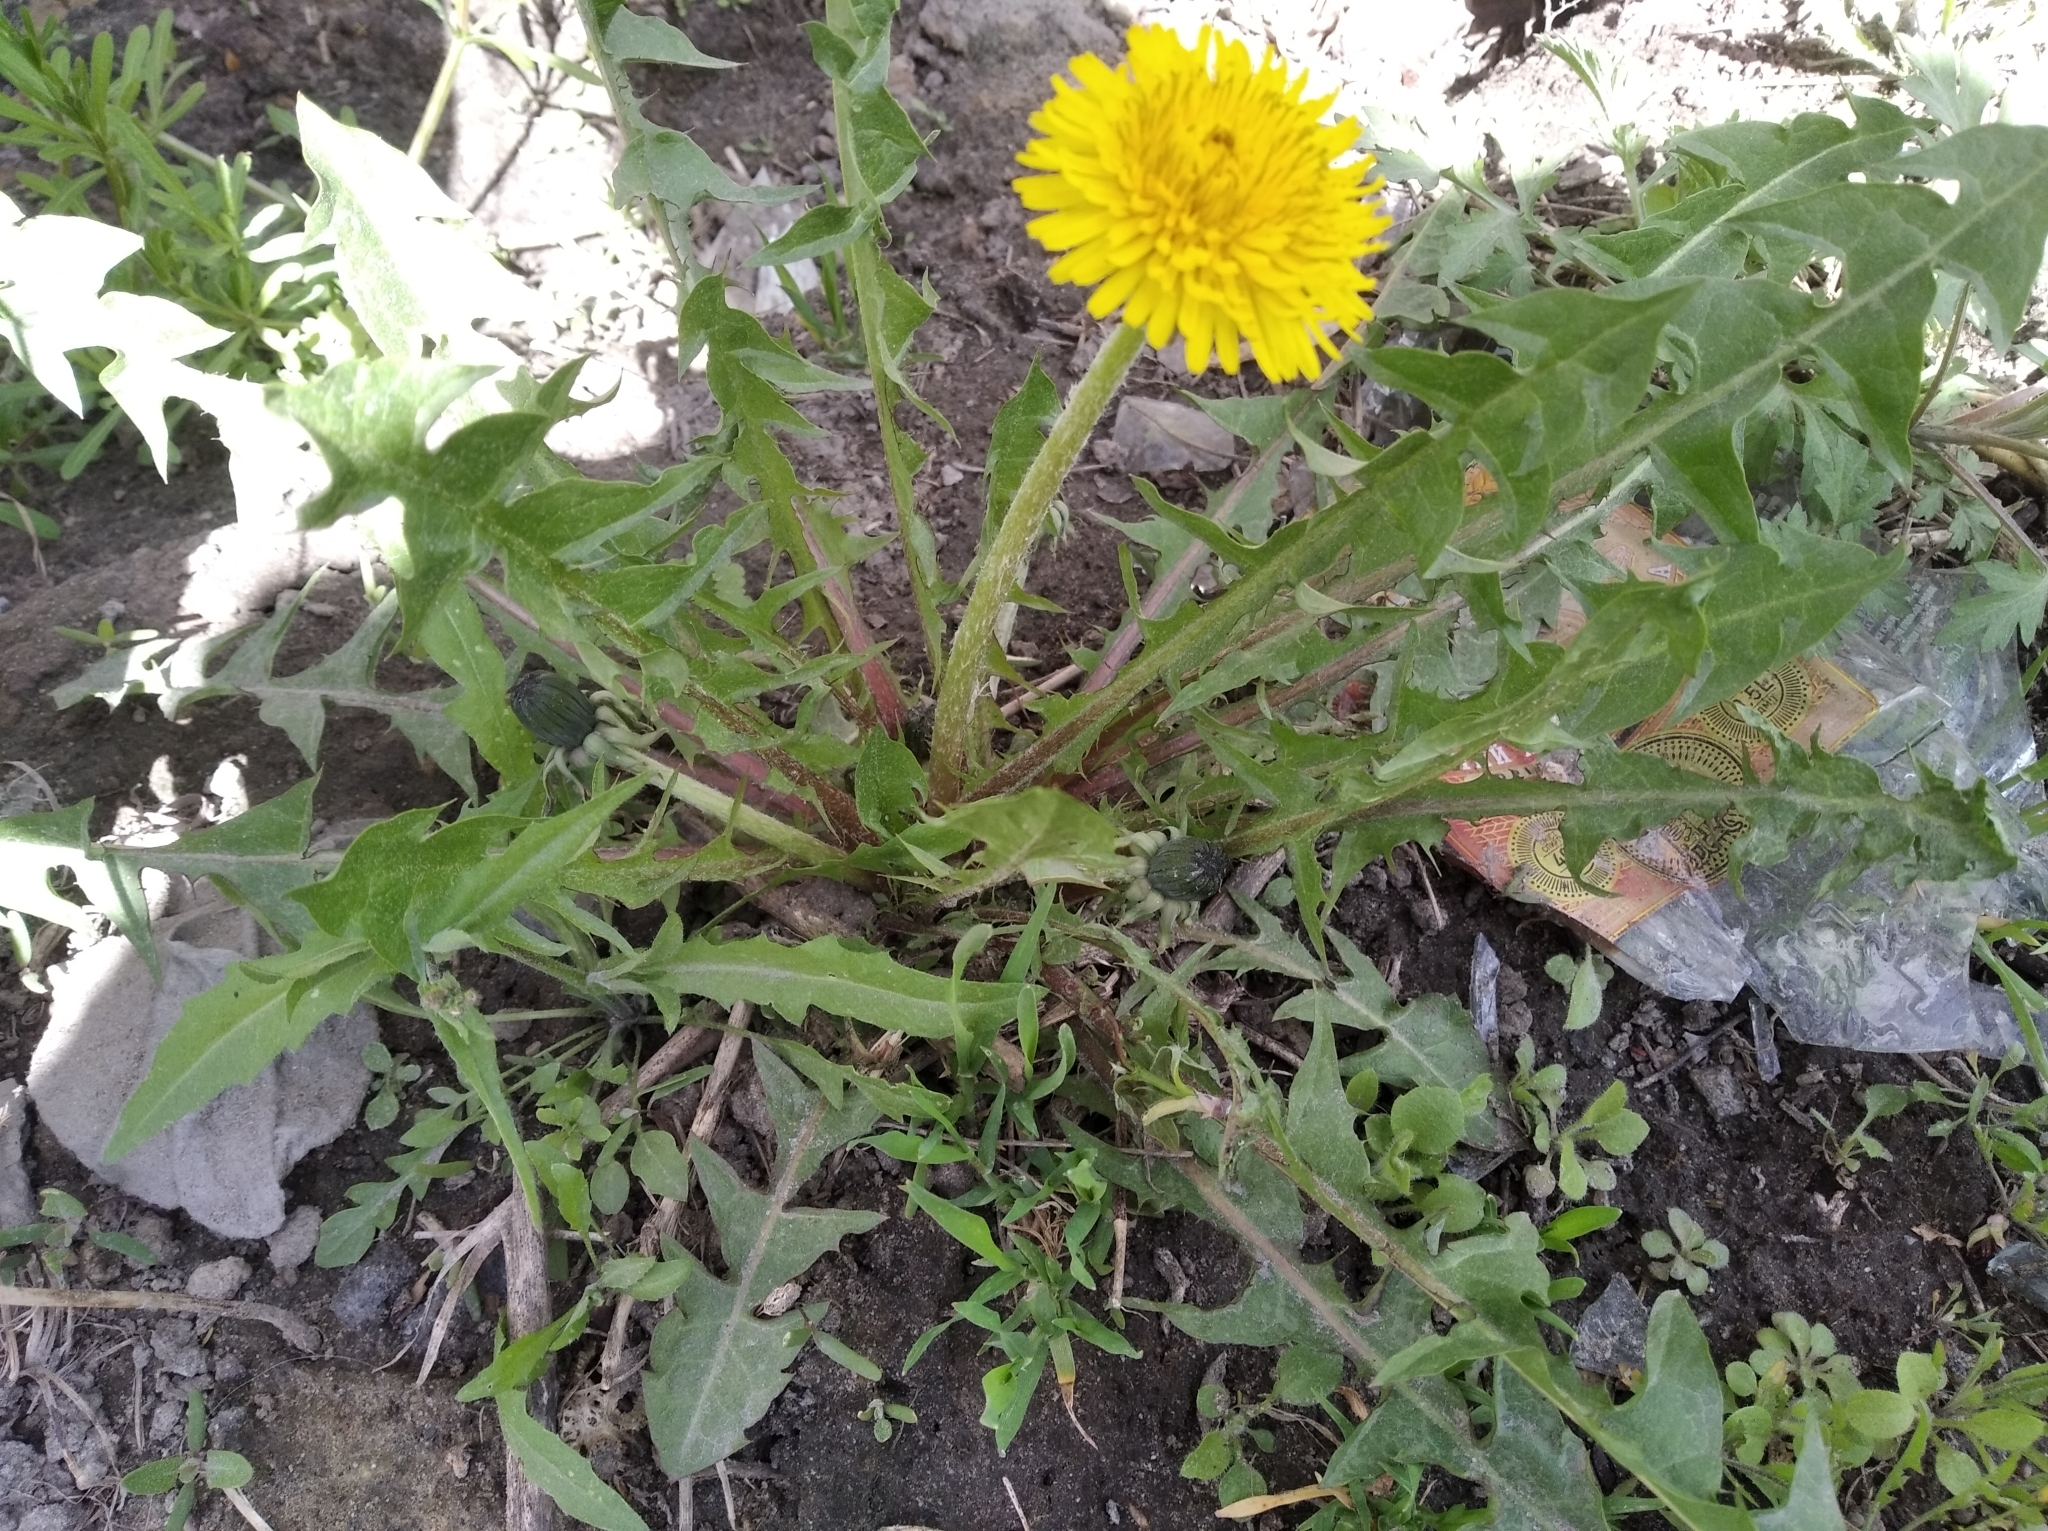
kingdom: Plantae
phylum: Tracheophyta
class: Magnoliopsida
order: Asterales
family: Asteraceae
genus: Taraxacum
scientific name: Taraxacum officinale
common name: Common dandelion
